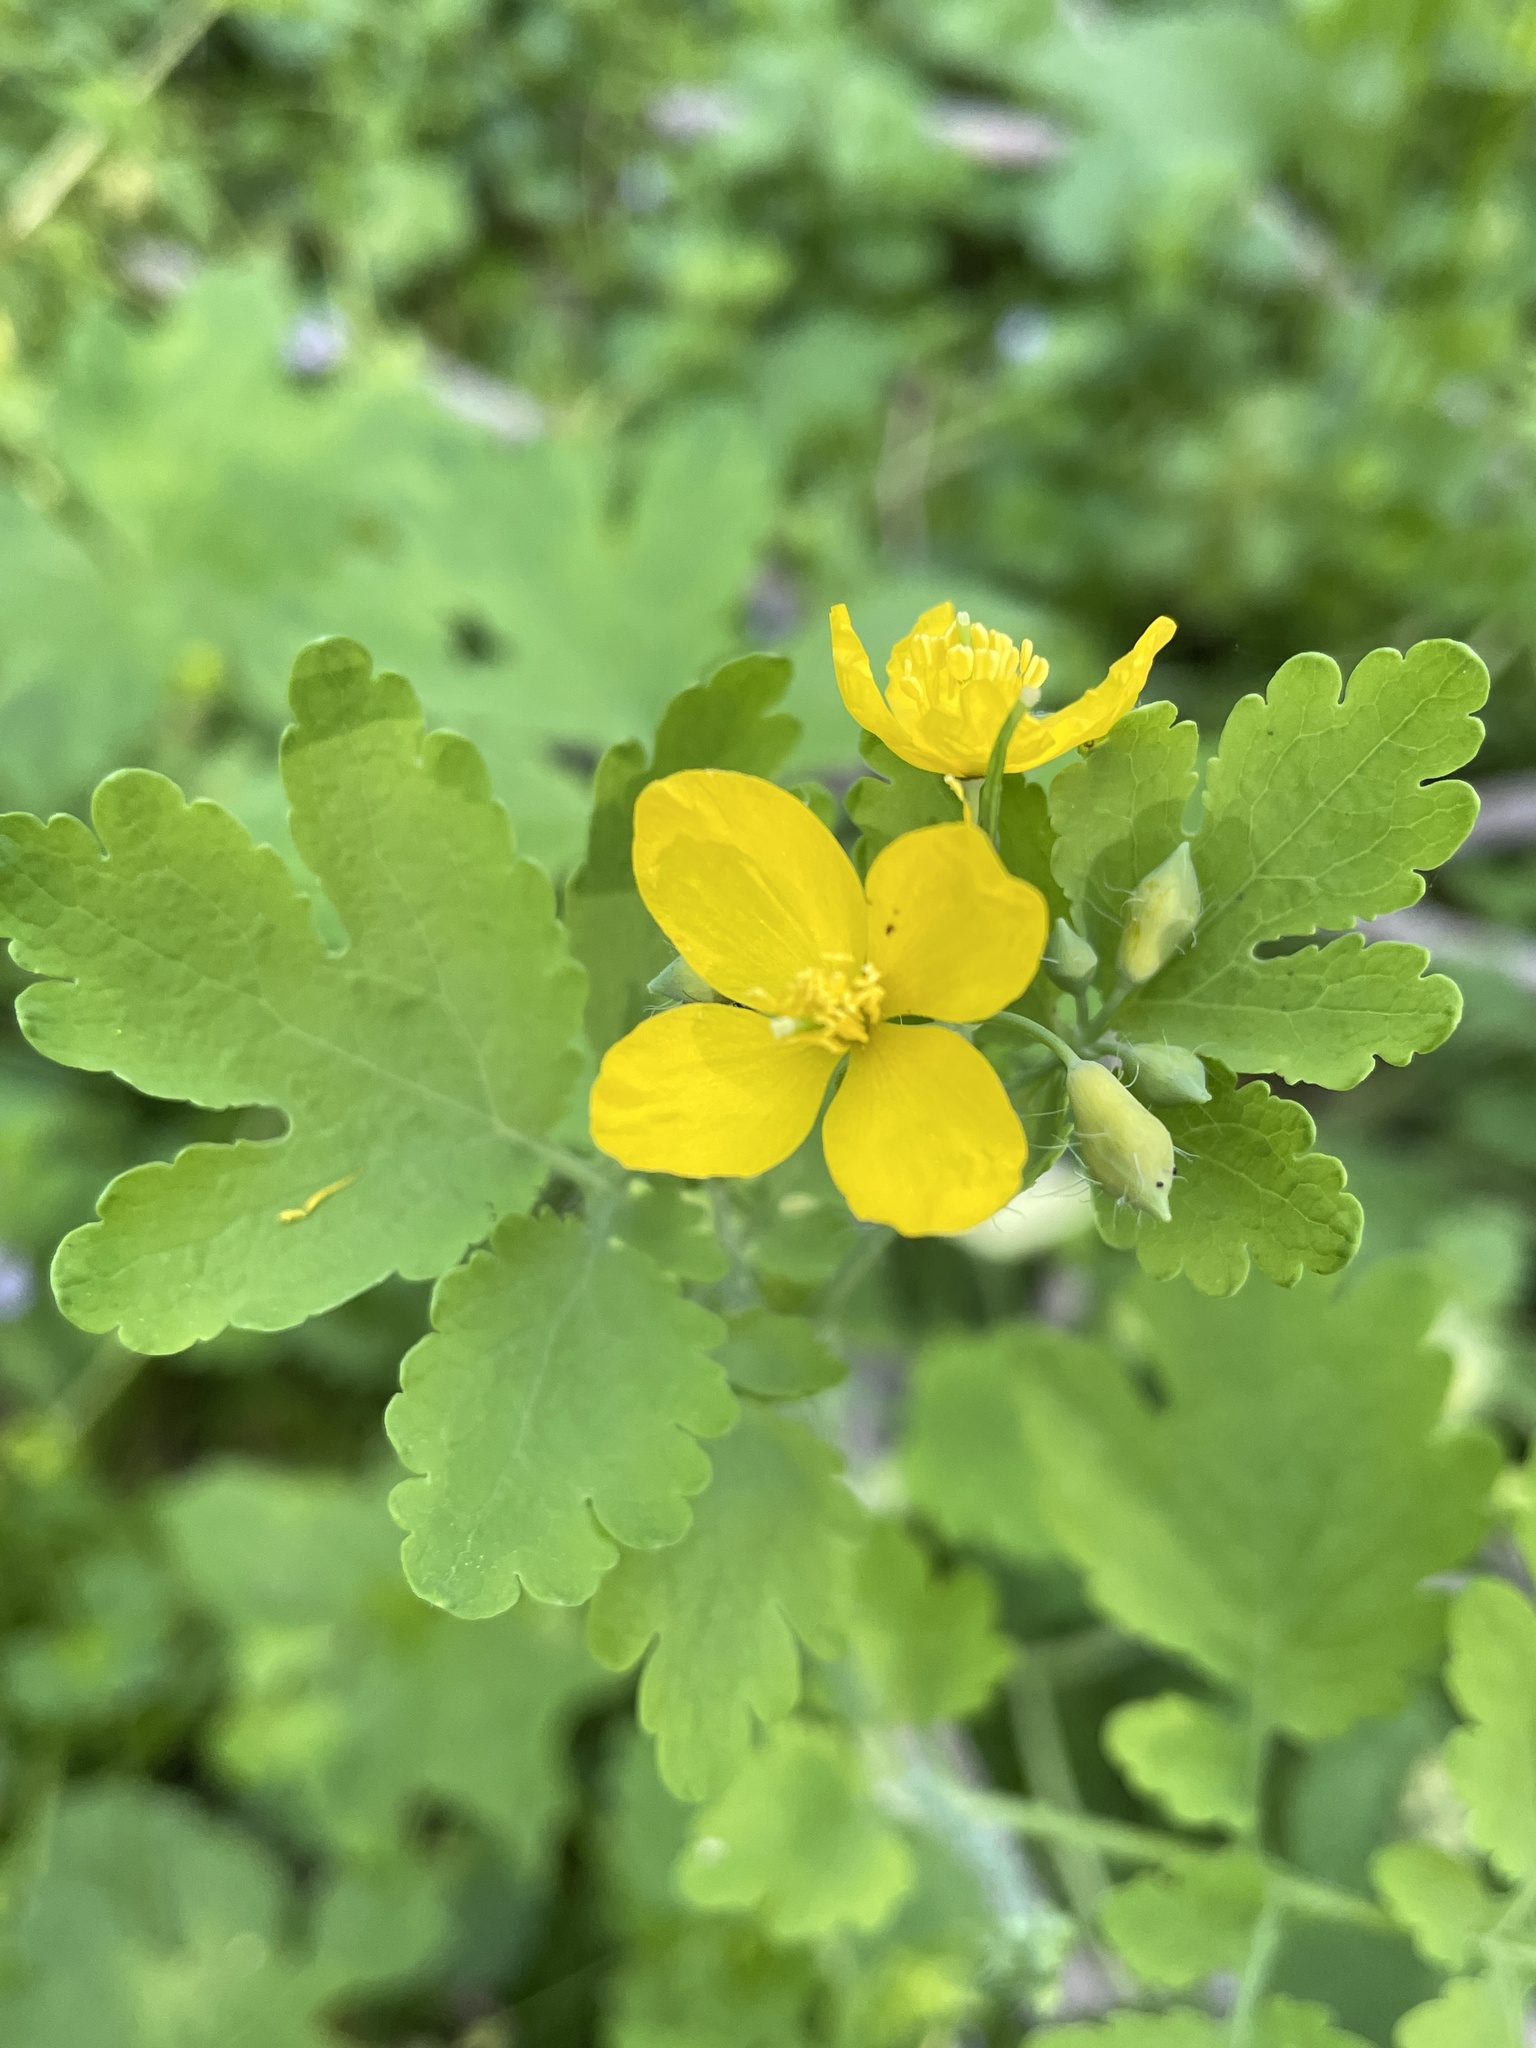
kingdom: Plantae
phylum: Tracheophyta
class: Magnoliopsida
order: Ranunculales
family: Papaveraceae
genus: Chelidonium
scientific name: Chelidonium majus
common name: Greater celandine
